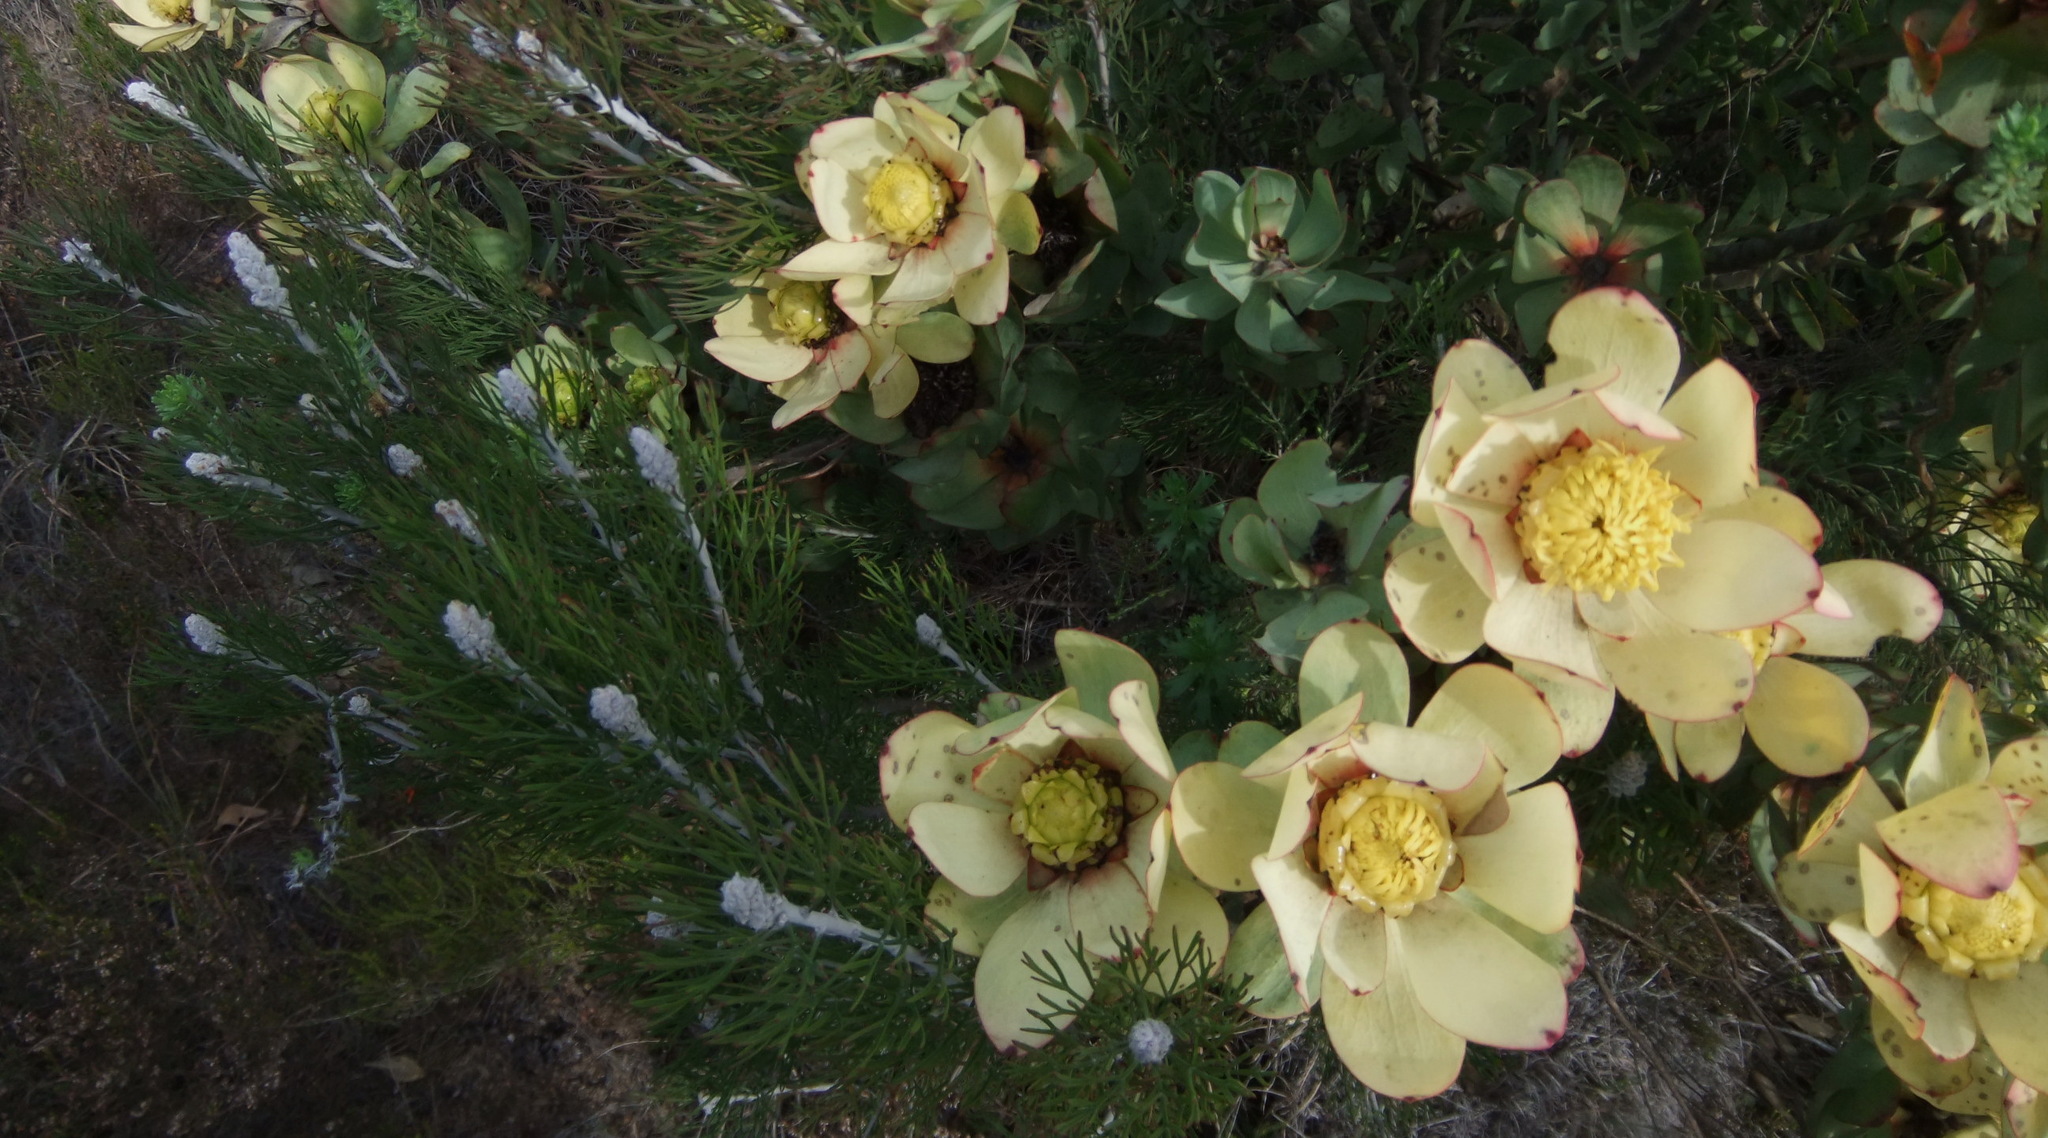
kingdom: Plantae
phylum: Tracheophyta
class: Magnoliopsida
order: Proteales
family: Proteaceae
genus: Leucadendron
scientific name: Leucadendron tinctum
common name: Spicy conebush
